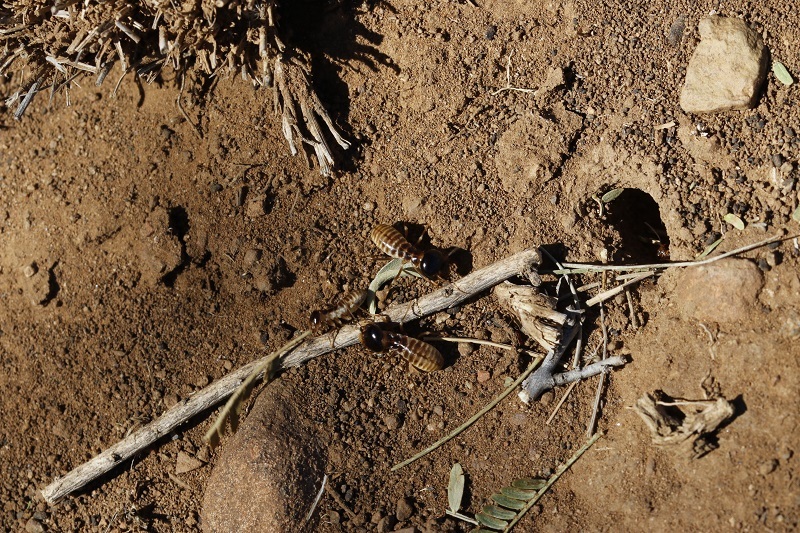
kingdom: Animalia
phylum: Arthropoda
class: Insecta
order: Blattodea
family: Hodotermitidae
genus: Hodotermes
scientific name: Hodotermes mossambicus
